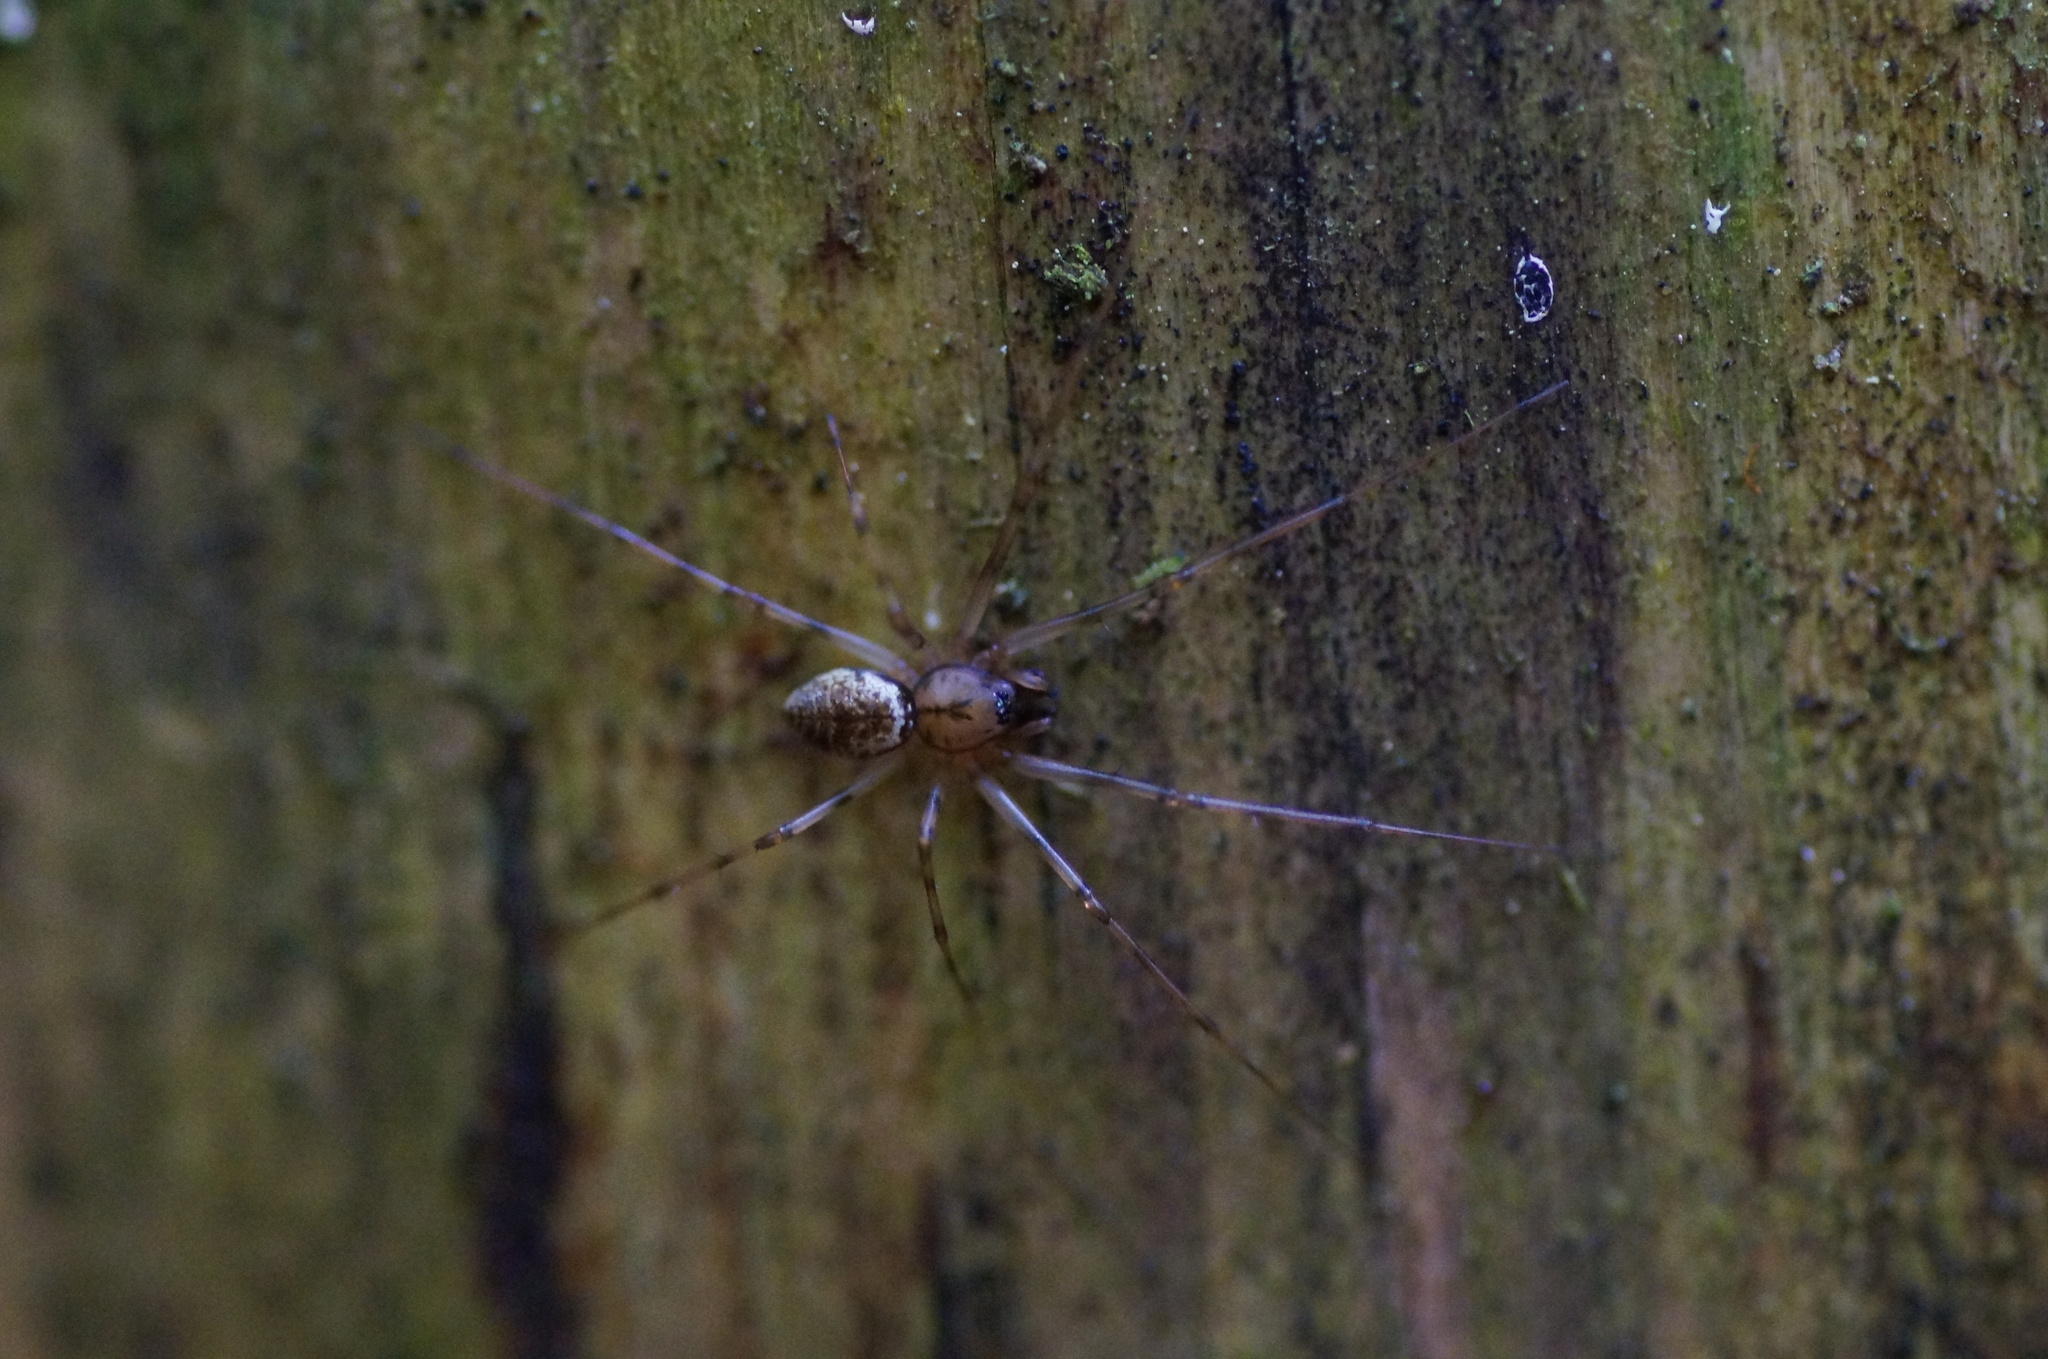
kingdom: Animalia
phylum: Arthropoda
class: Arachnida
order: Araneae
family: Linyphiidae
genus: Drapetisca
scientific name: Drapetisca socialis
